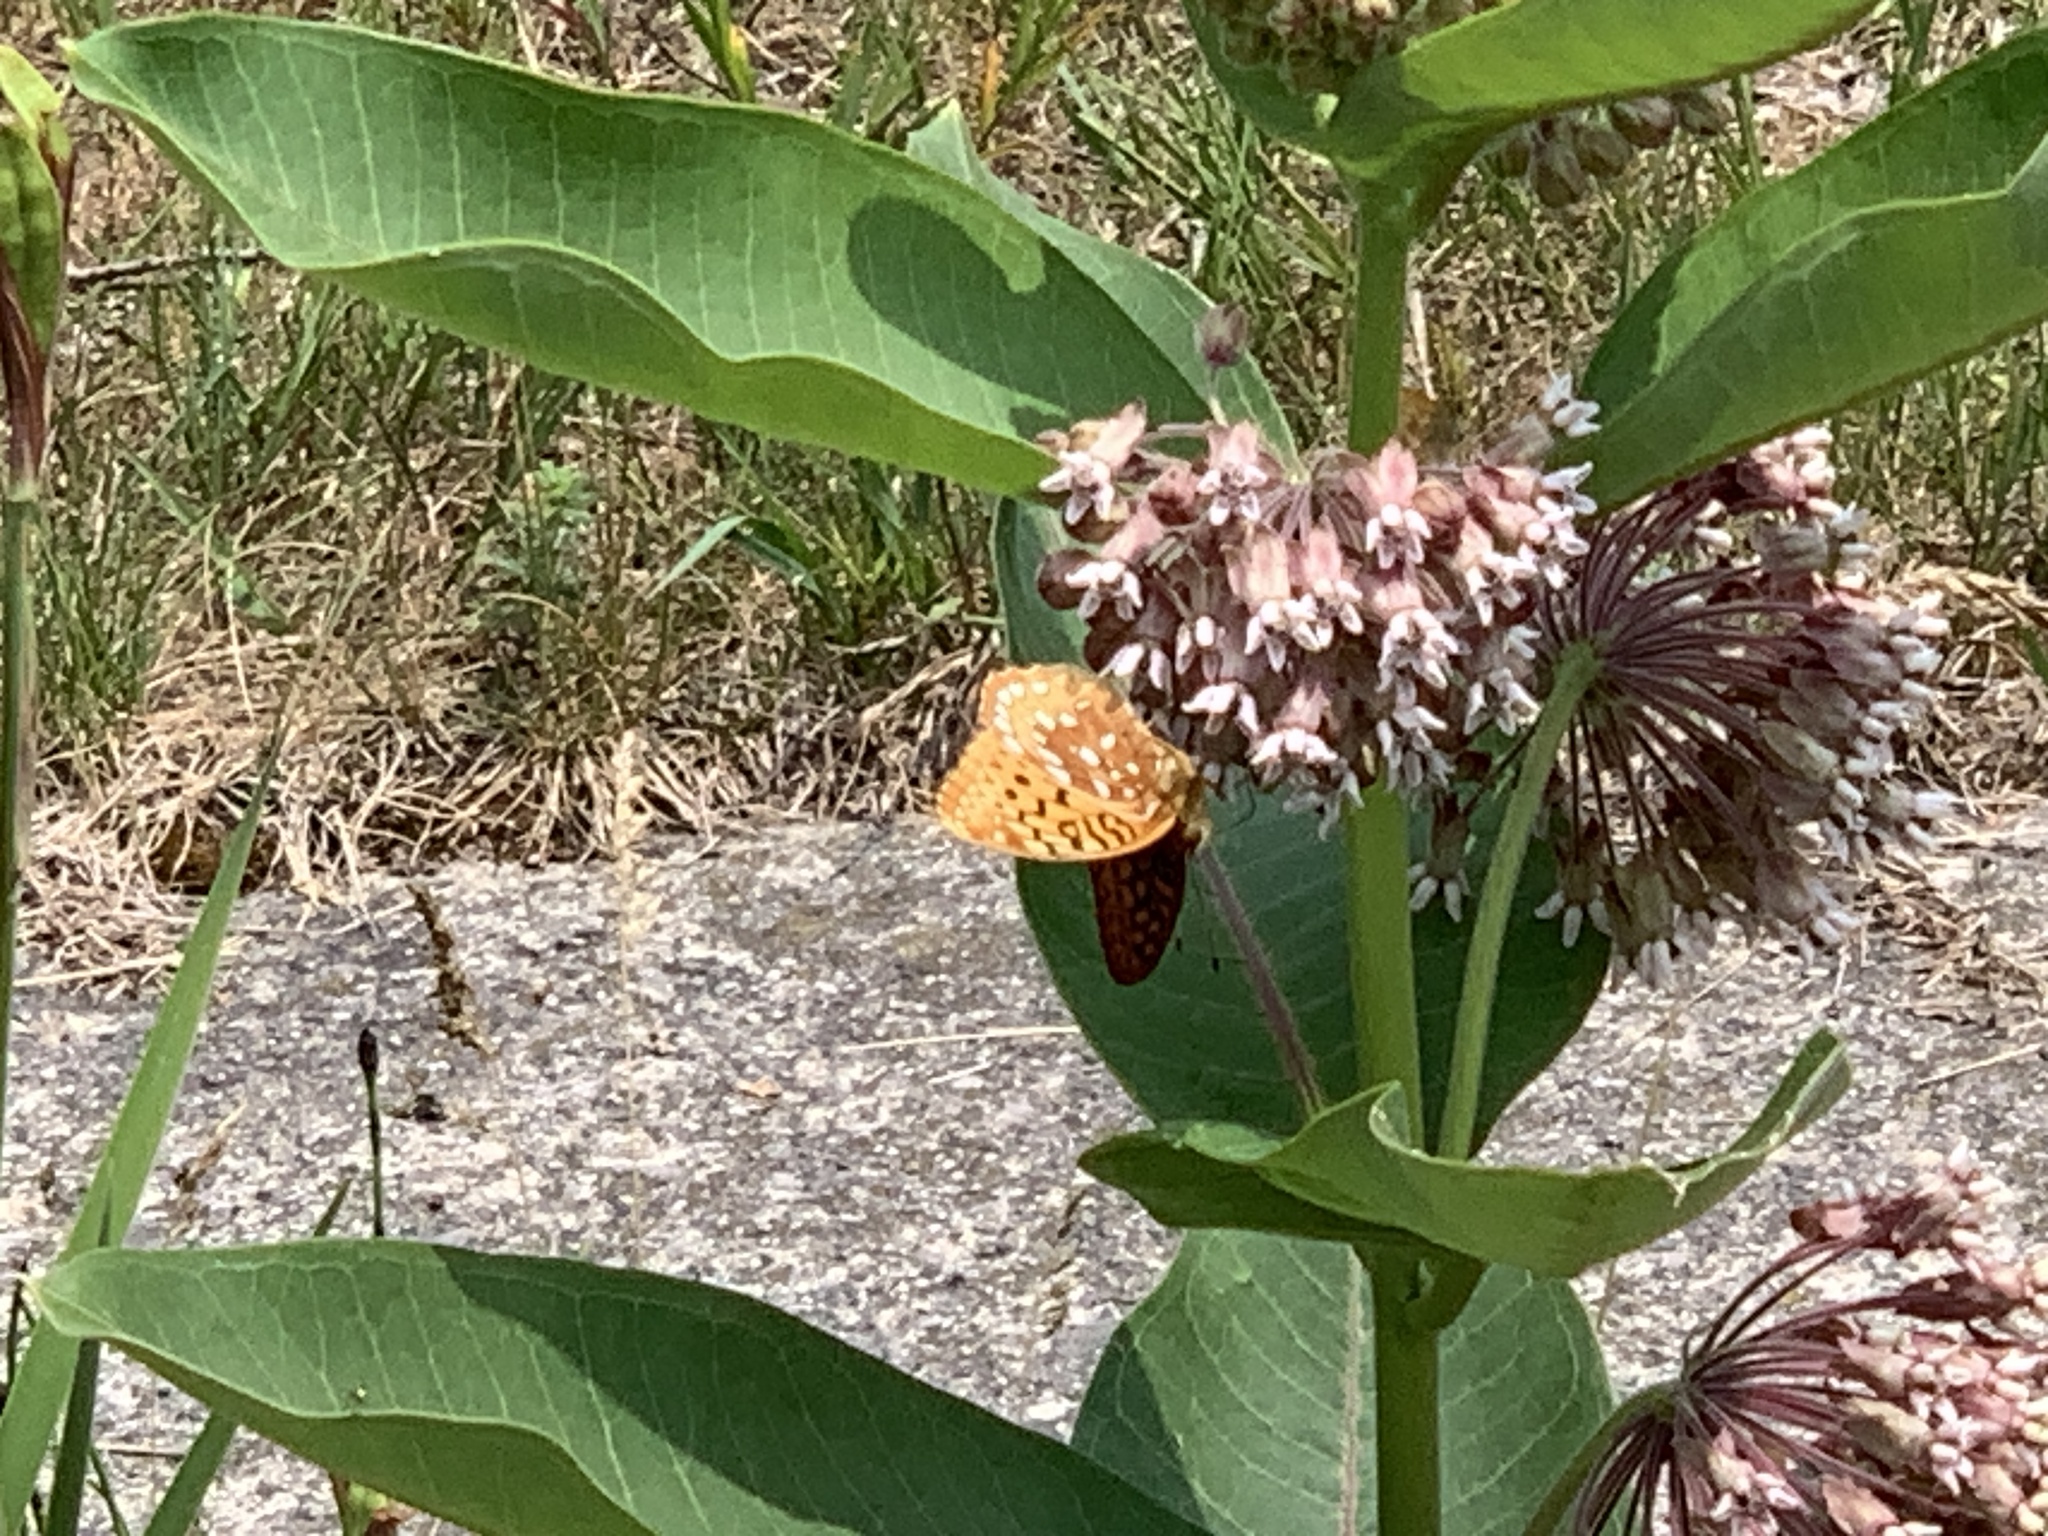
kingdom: Animalia
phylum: Arthropoda
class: Insecta
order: Lepidoptera
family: Nymphalidae
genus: Speyeria
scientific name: Speyeria cybele
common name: Great spangled fritillary
